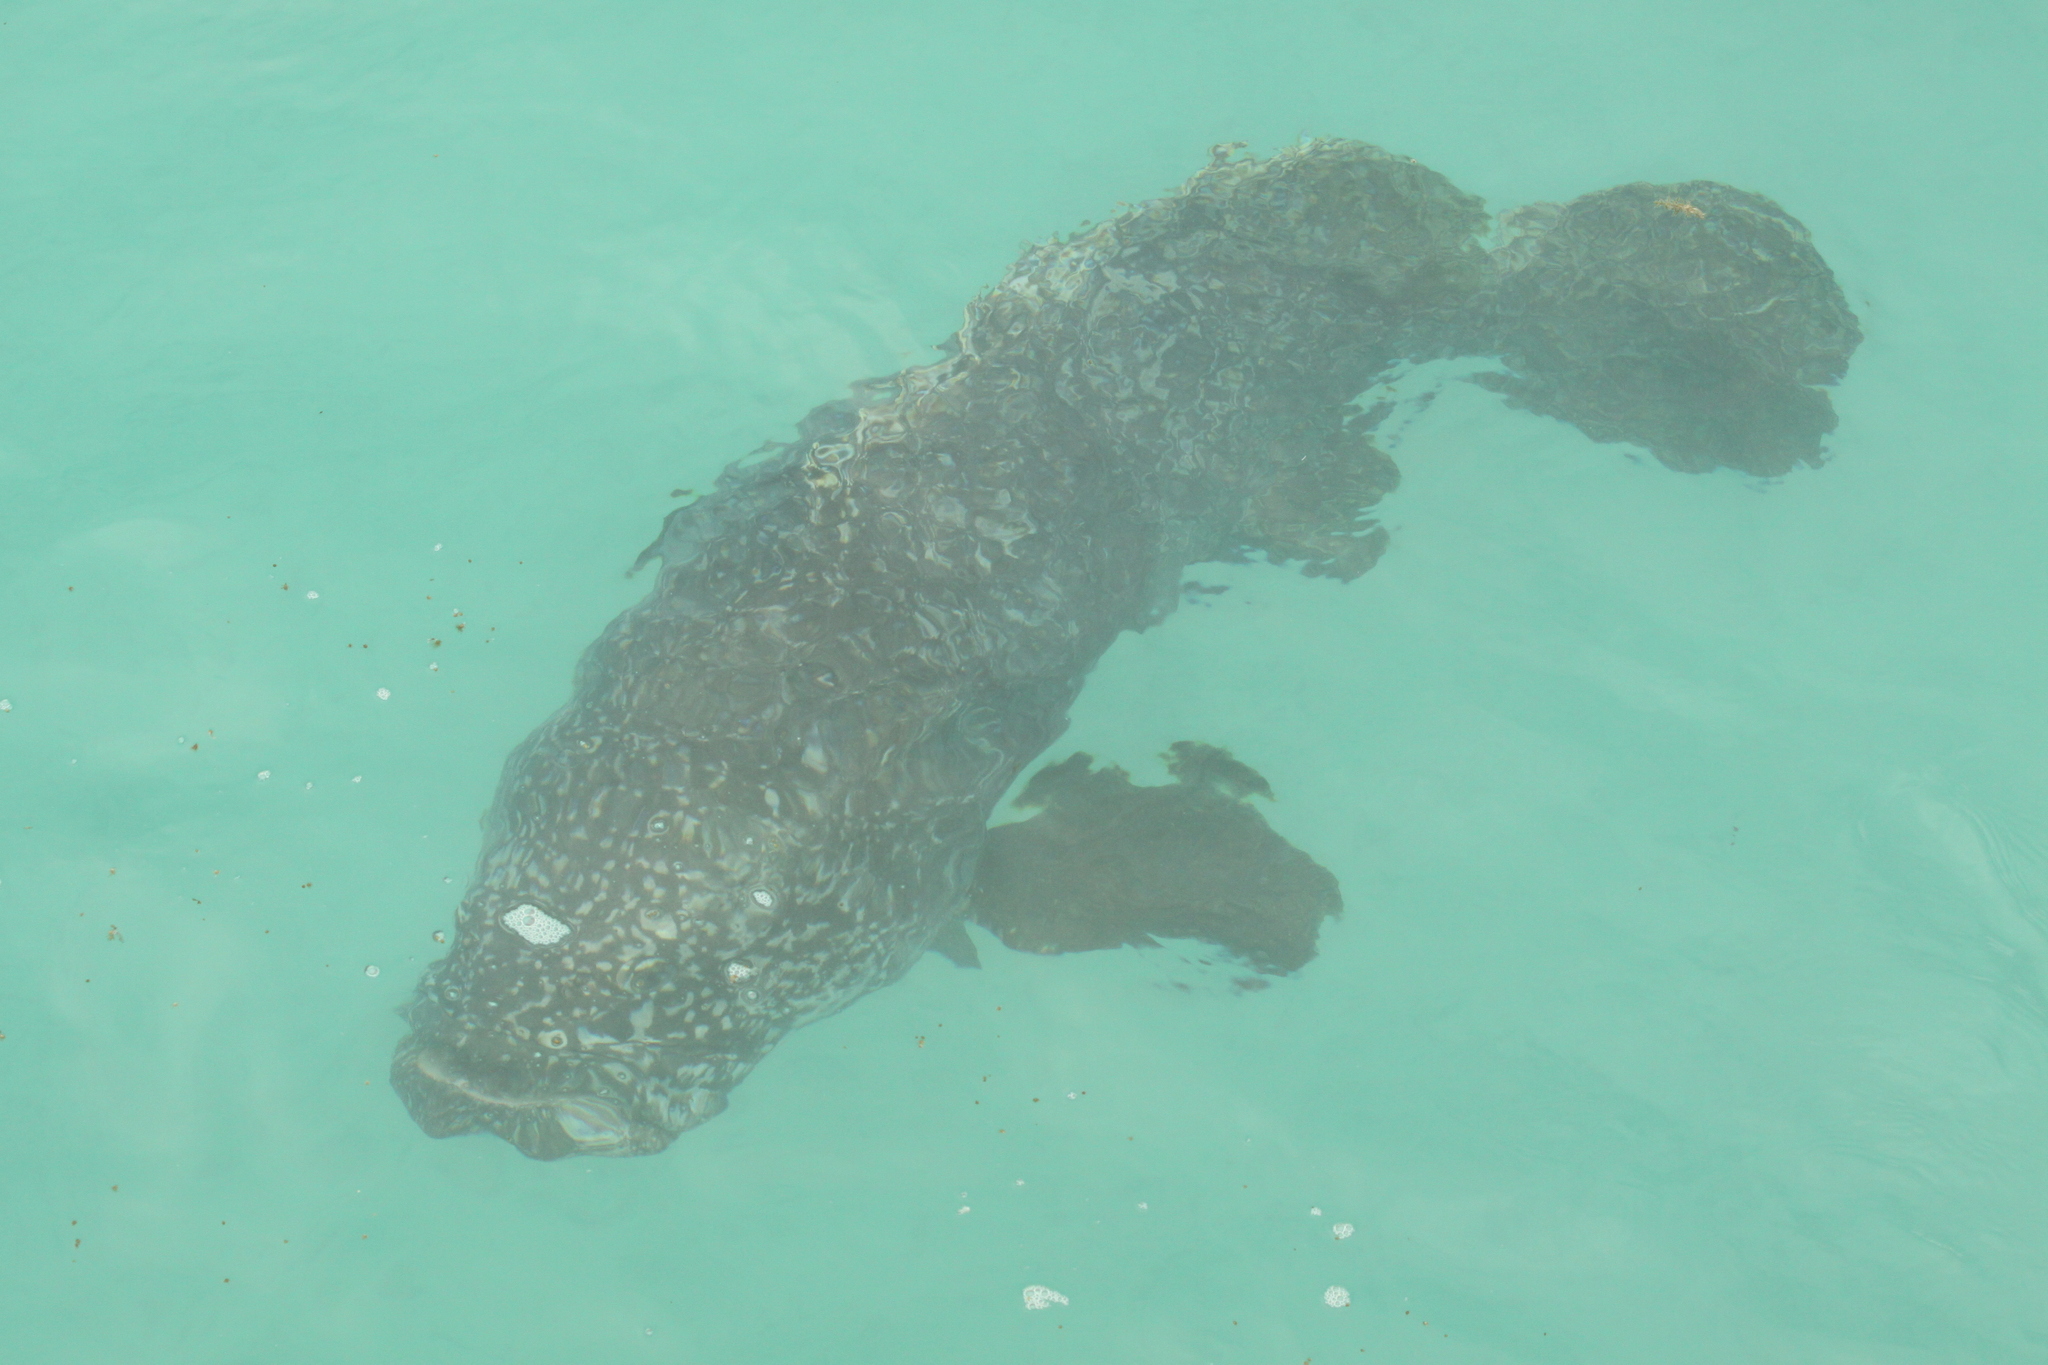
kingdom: Animalia
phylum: Chordata
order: Perciformes
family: Serranidae
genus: Epinephelus
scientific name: Epinephelus lanceolatus
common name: Giant grouper
